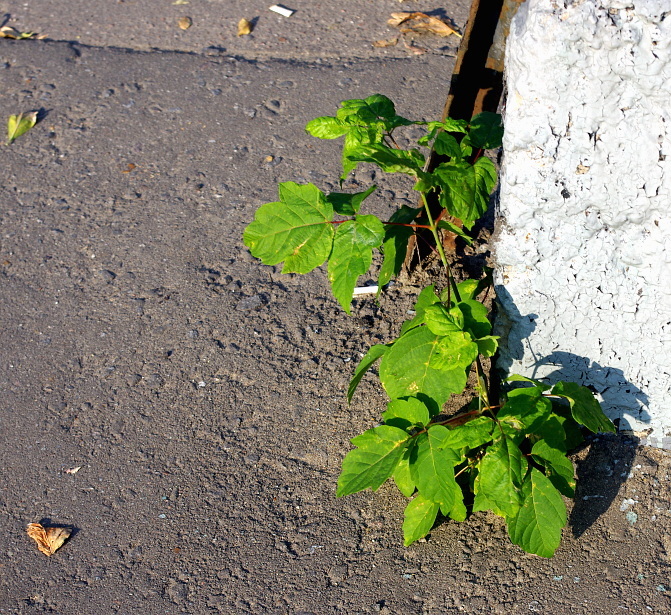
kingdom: Plantae
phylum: Tracheophyta
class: Magnoliopsida
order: Sapindales
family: Sapindaceae
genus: Acer
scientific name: Acer negundo
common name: Ashleaf maple
